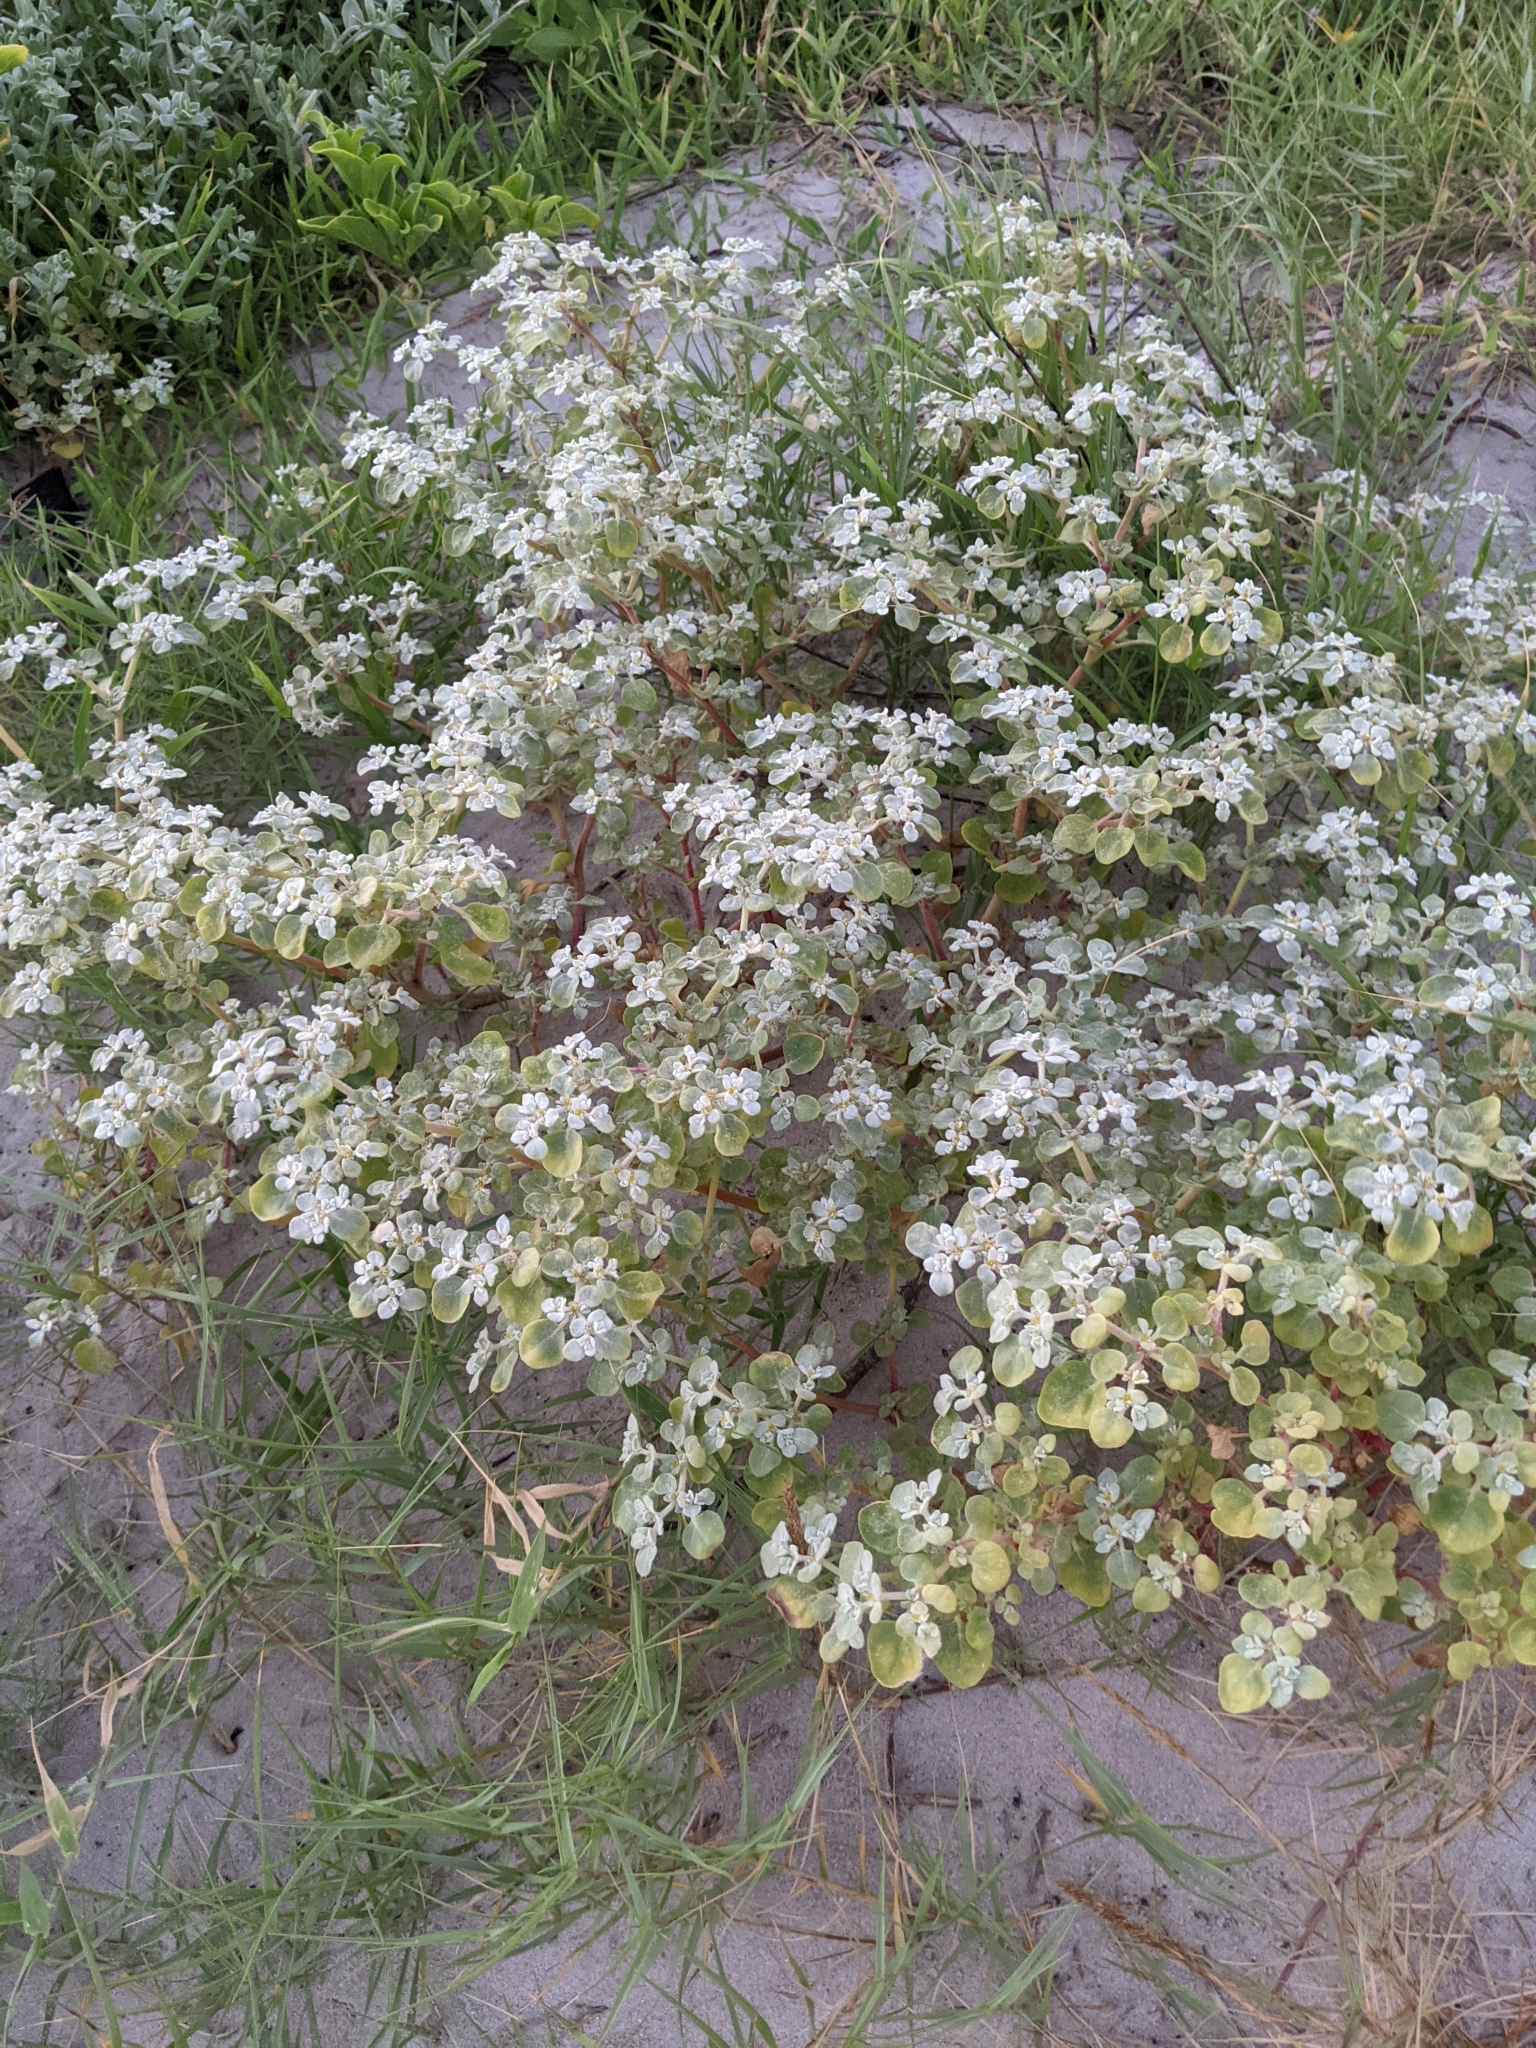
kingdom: Plantae
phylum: Tracheophyta
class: Magnoliopsida
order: Caryophyllales
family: Amaranthaceae
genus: Tidestromia
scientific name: Tidestromia lanuginosa
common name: Woolly tidestromia
